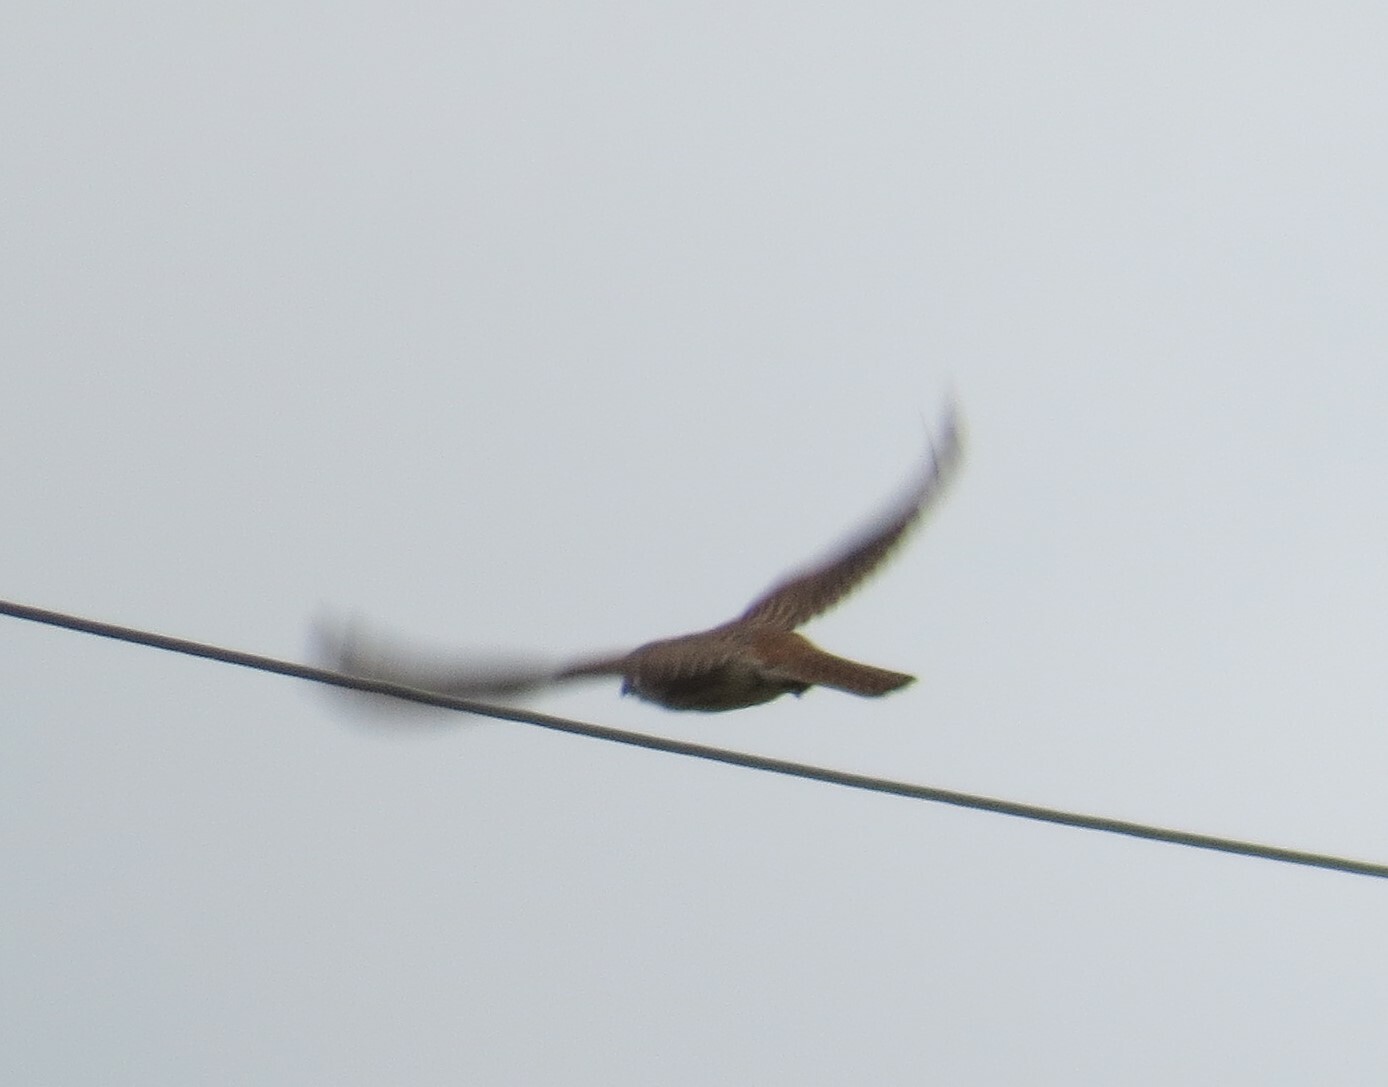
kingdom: Animalia
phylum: Chordata
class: Aves
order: Falconiformes
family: Falconidae
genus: Falco
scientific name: Falco sparverius
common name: American kestrel
